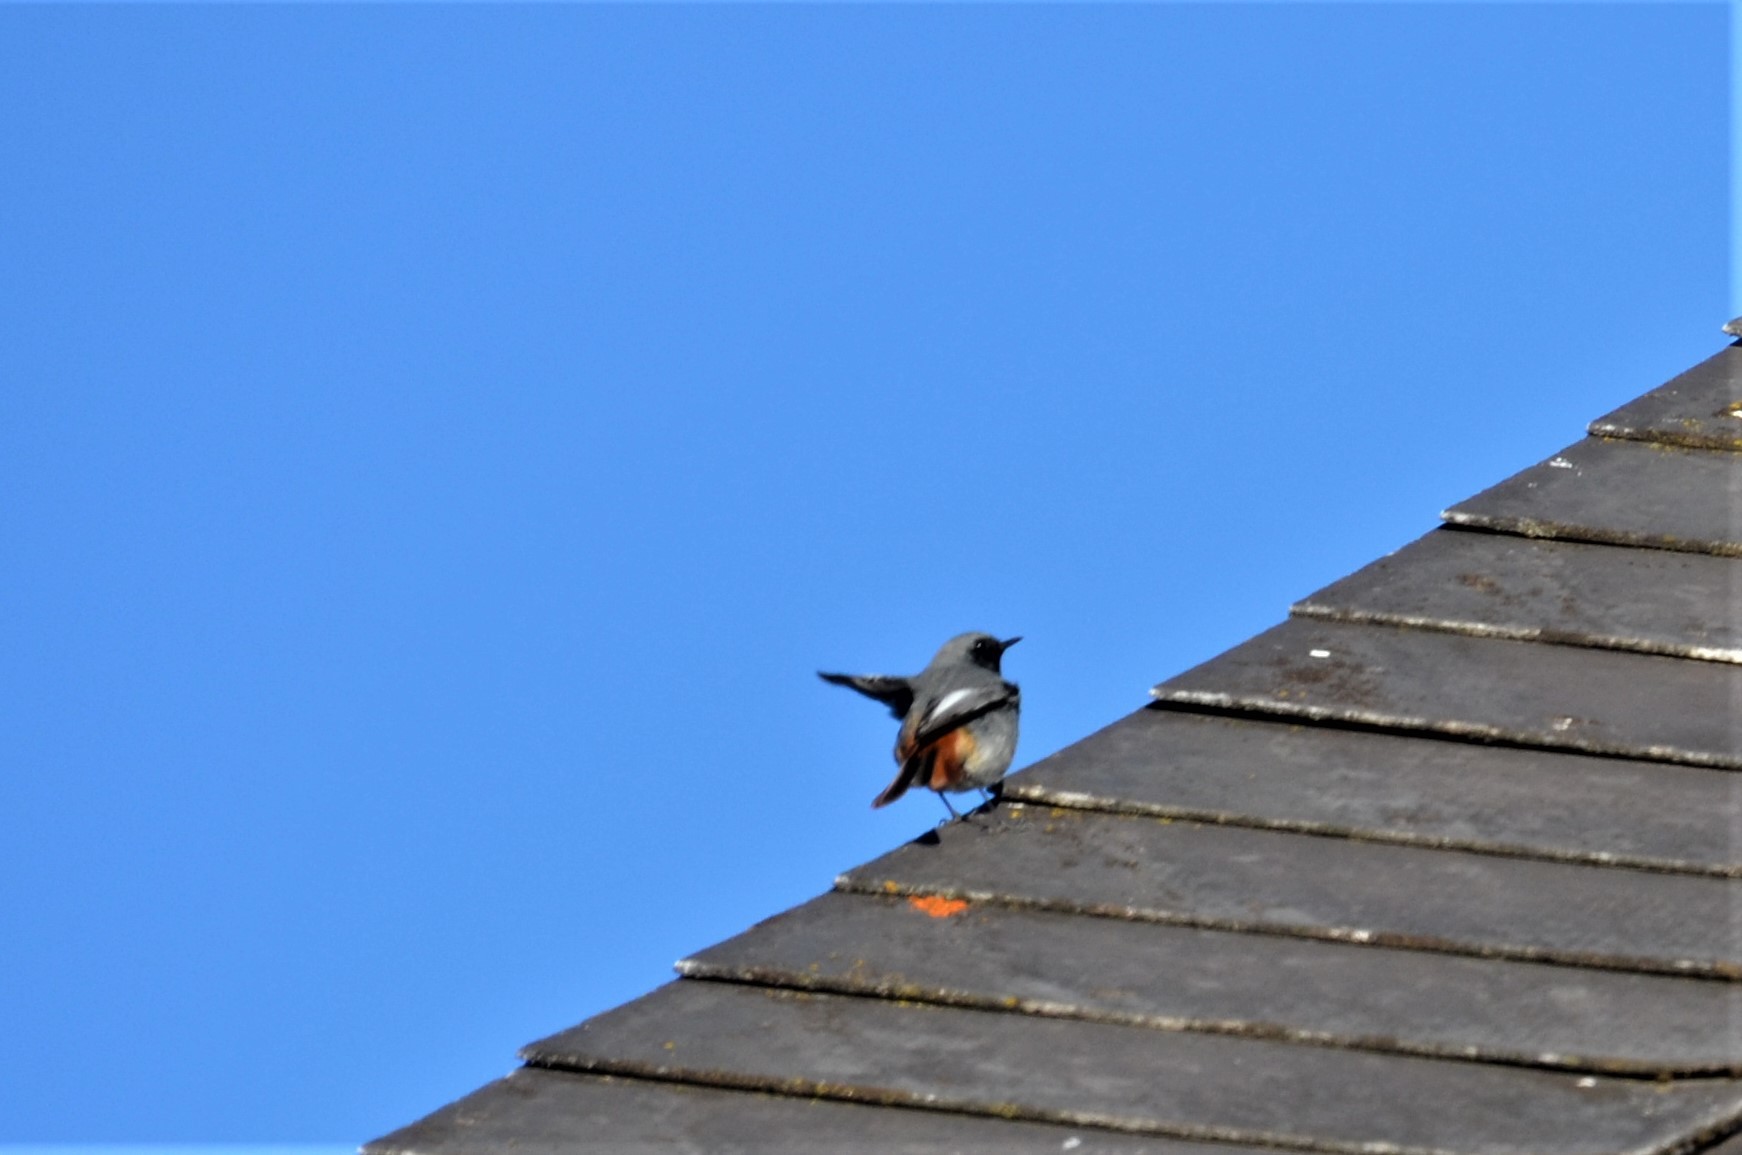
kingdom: Animalia
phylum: Chordata
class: Aves
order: Passeriformes
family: Muscicapidae
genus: Phoenicurus
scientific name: Phoenicurus ochruros
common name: Black redstart
